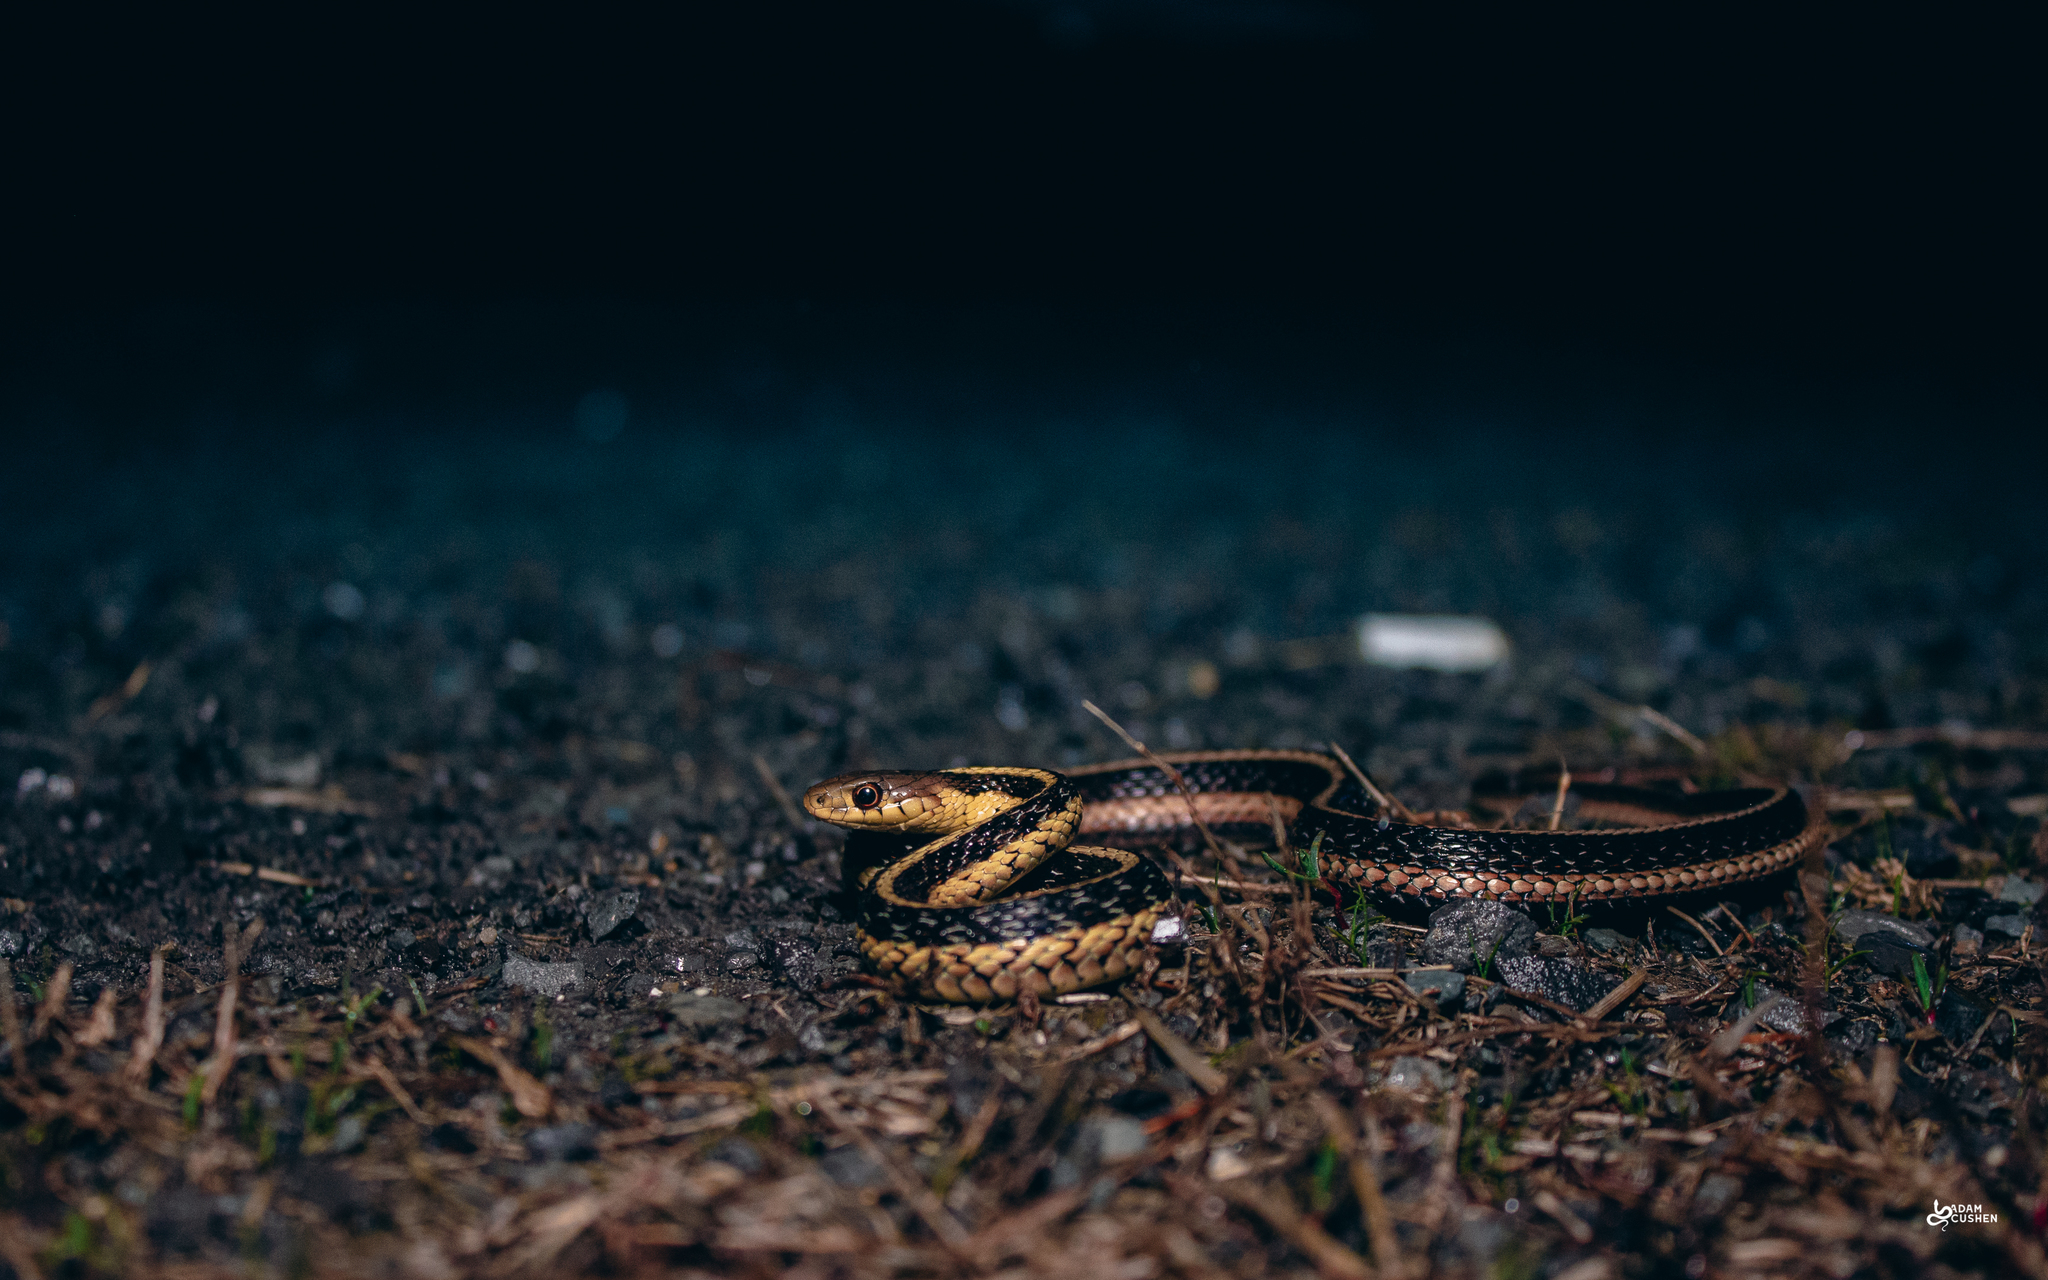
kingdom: Animalia
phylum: Chordata
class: Squamata
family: Colubridae
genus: Thamnophis
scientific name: Thamnophis sirtalis
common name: Common garter snake
